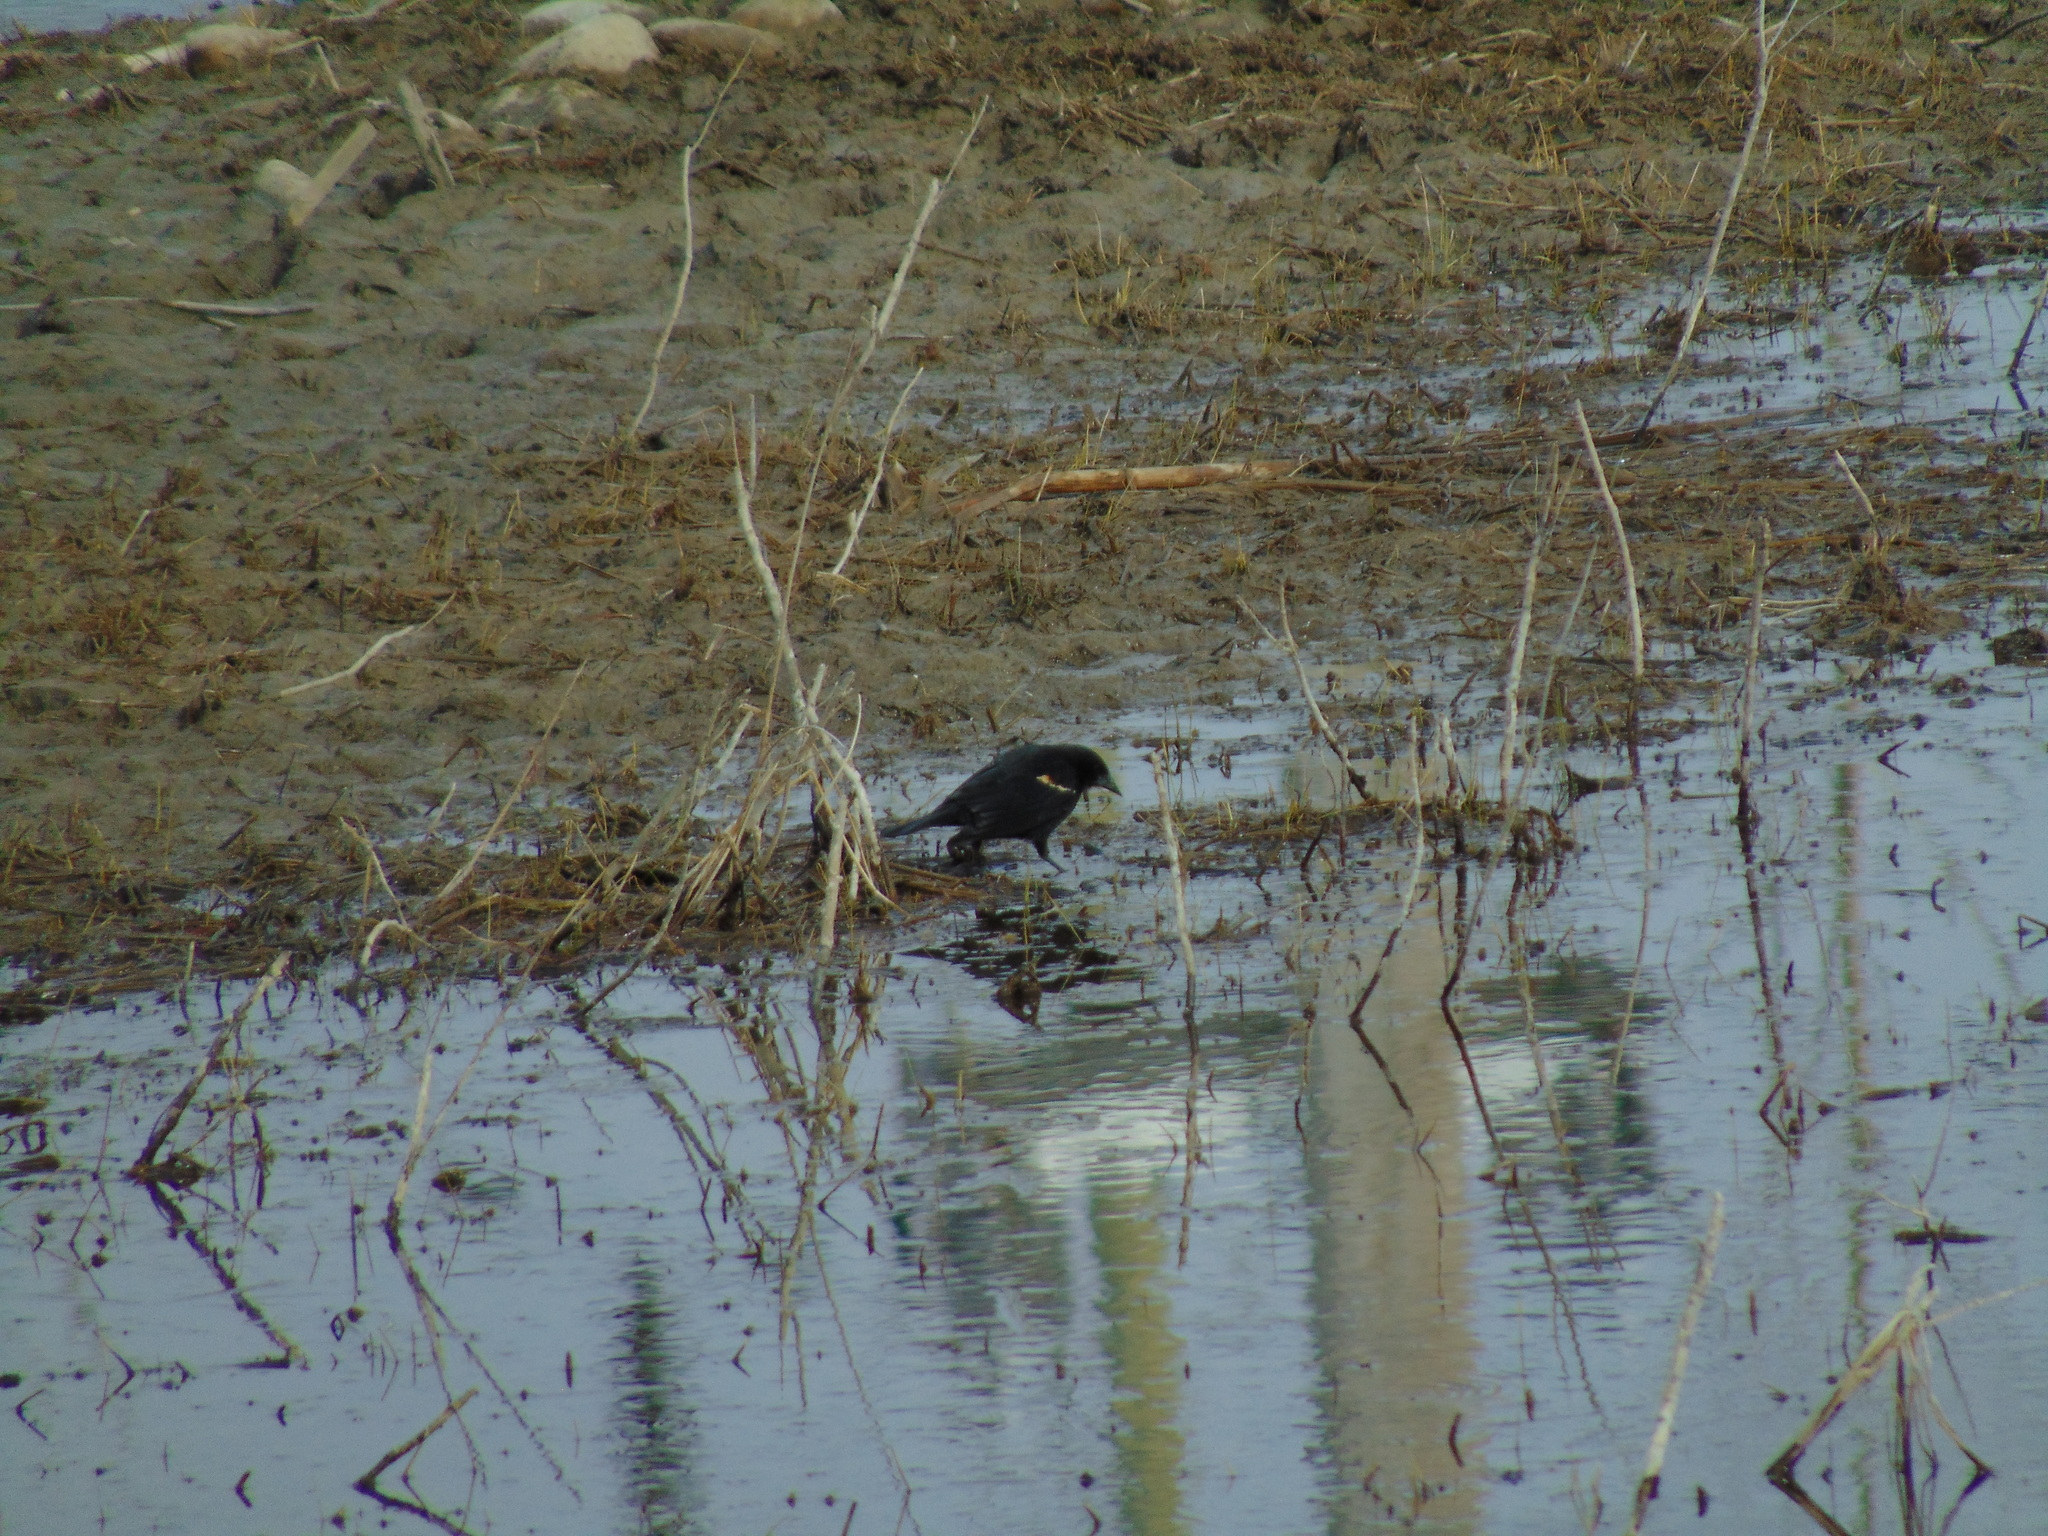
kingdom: Animalia
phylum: Chordata
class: Aves
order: Passeriformes
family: Icteridae
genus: Agelaius
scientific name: Agelaius phoeniceus
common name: Red-winged blackbird
